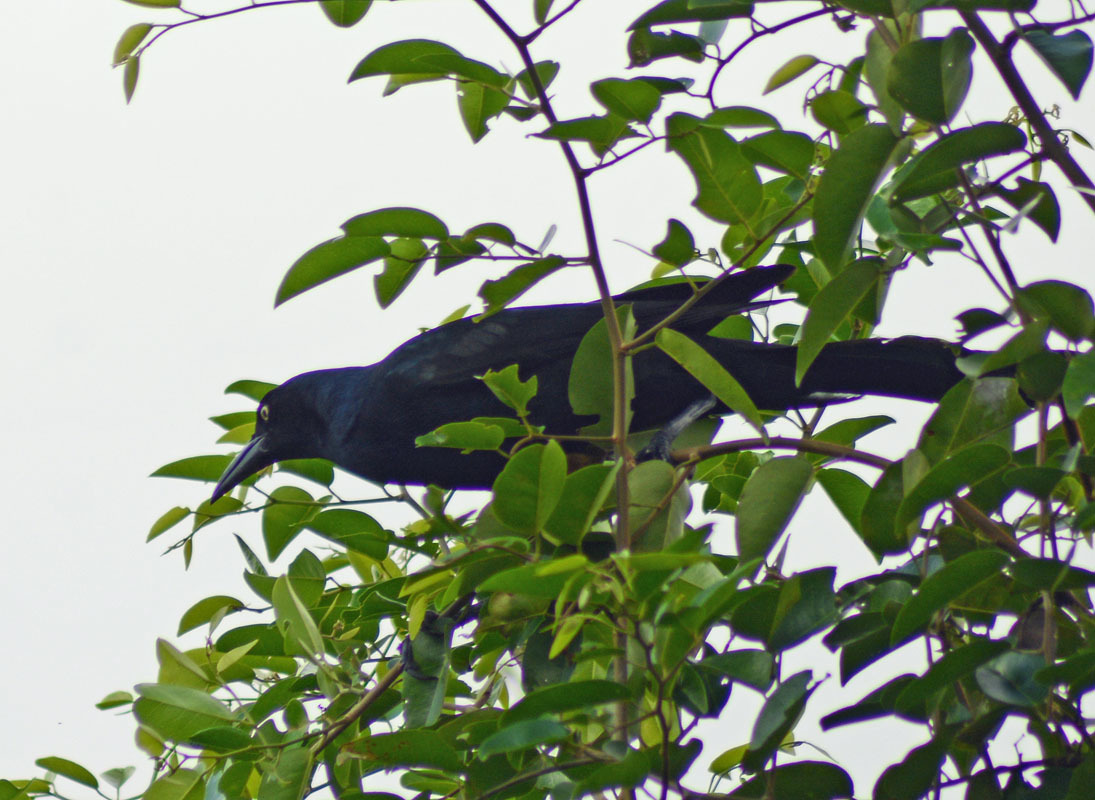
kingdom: Animalia
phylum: Chordata
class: Aves
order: Passeriformes
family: Icteridae
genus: Quiscalus
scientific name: Quiscalus mexicanus
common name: Great-tailed grackle
